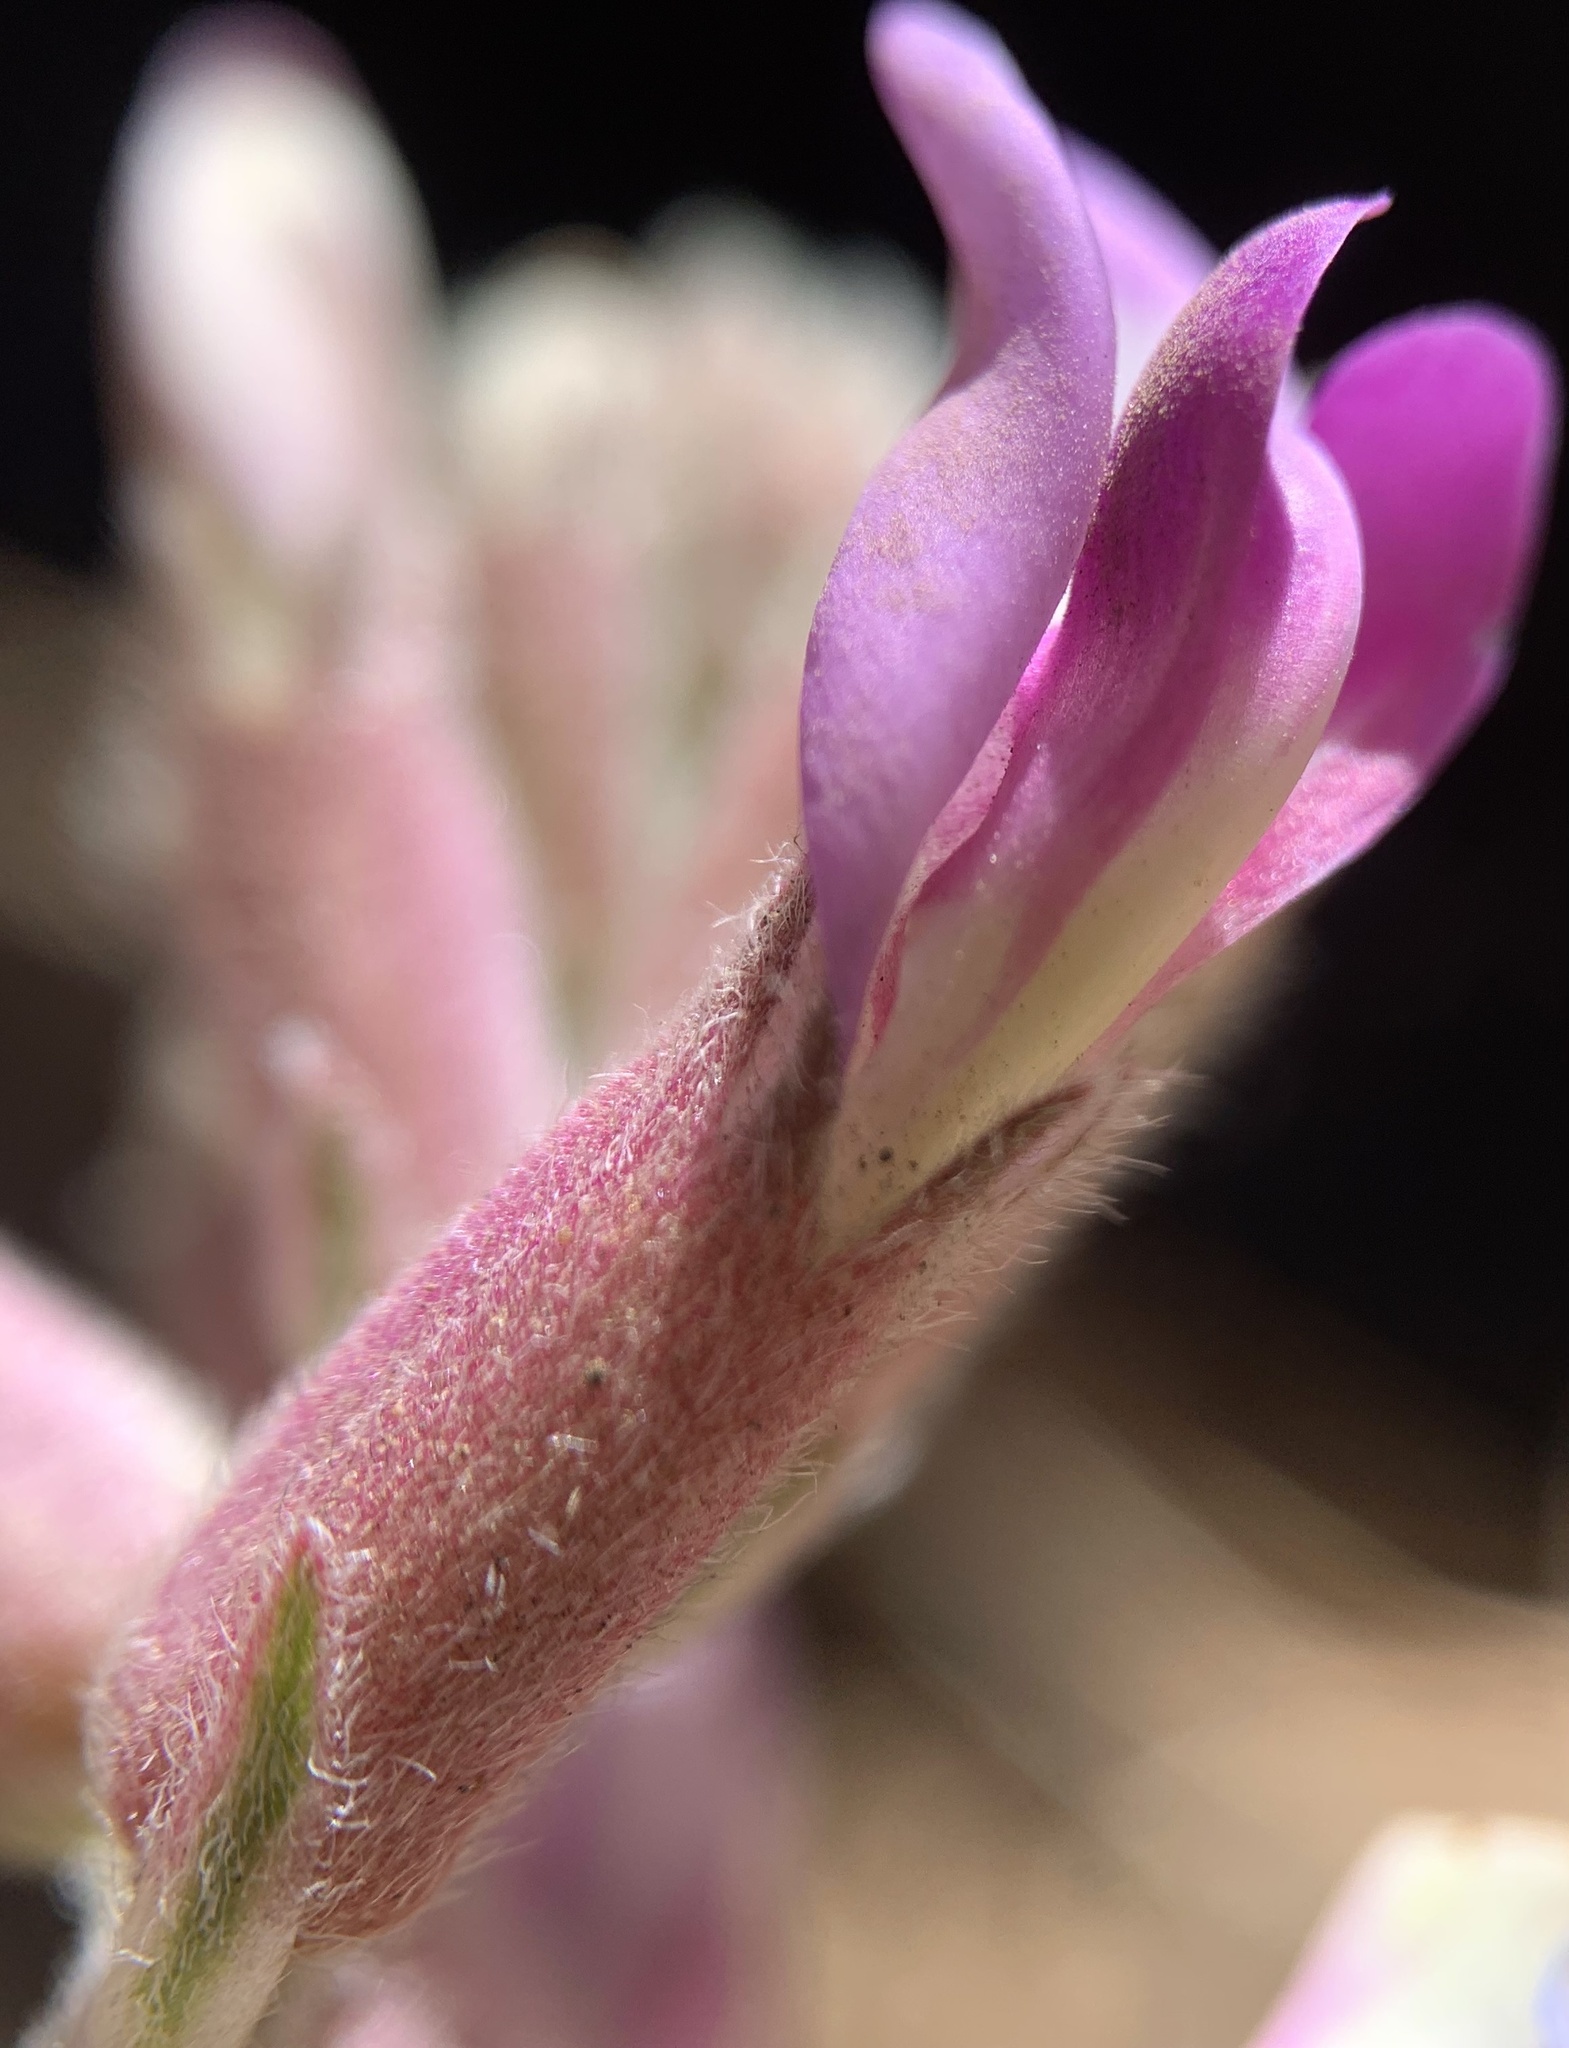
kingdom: Plantae
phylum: Tracheophyta
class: Magnoliopsida
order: Fabales
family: Fabaceae
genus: Astragalus
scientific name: Astragalus tephrodes
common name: Ashen milk-vetch
